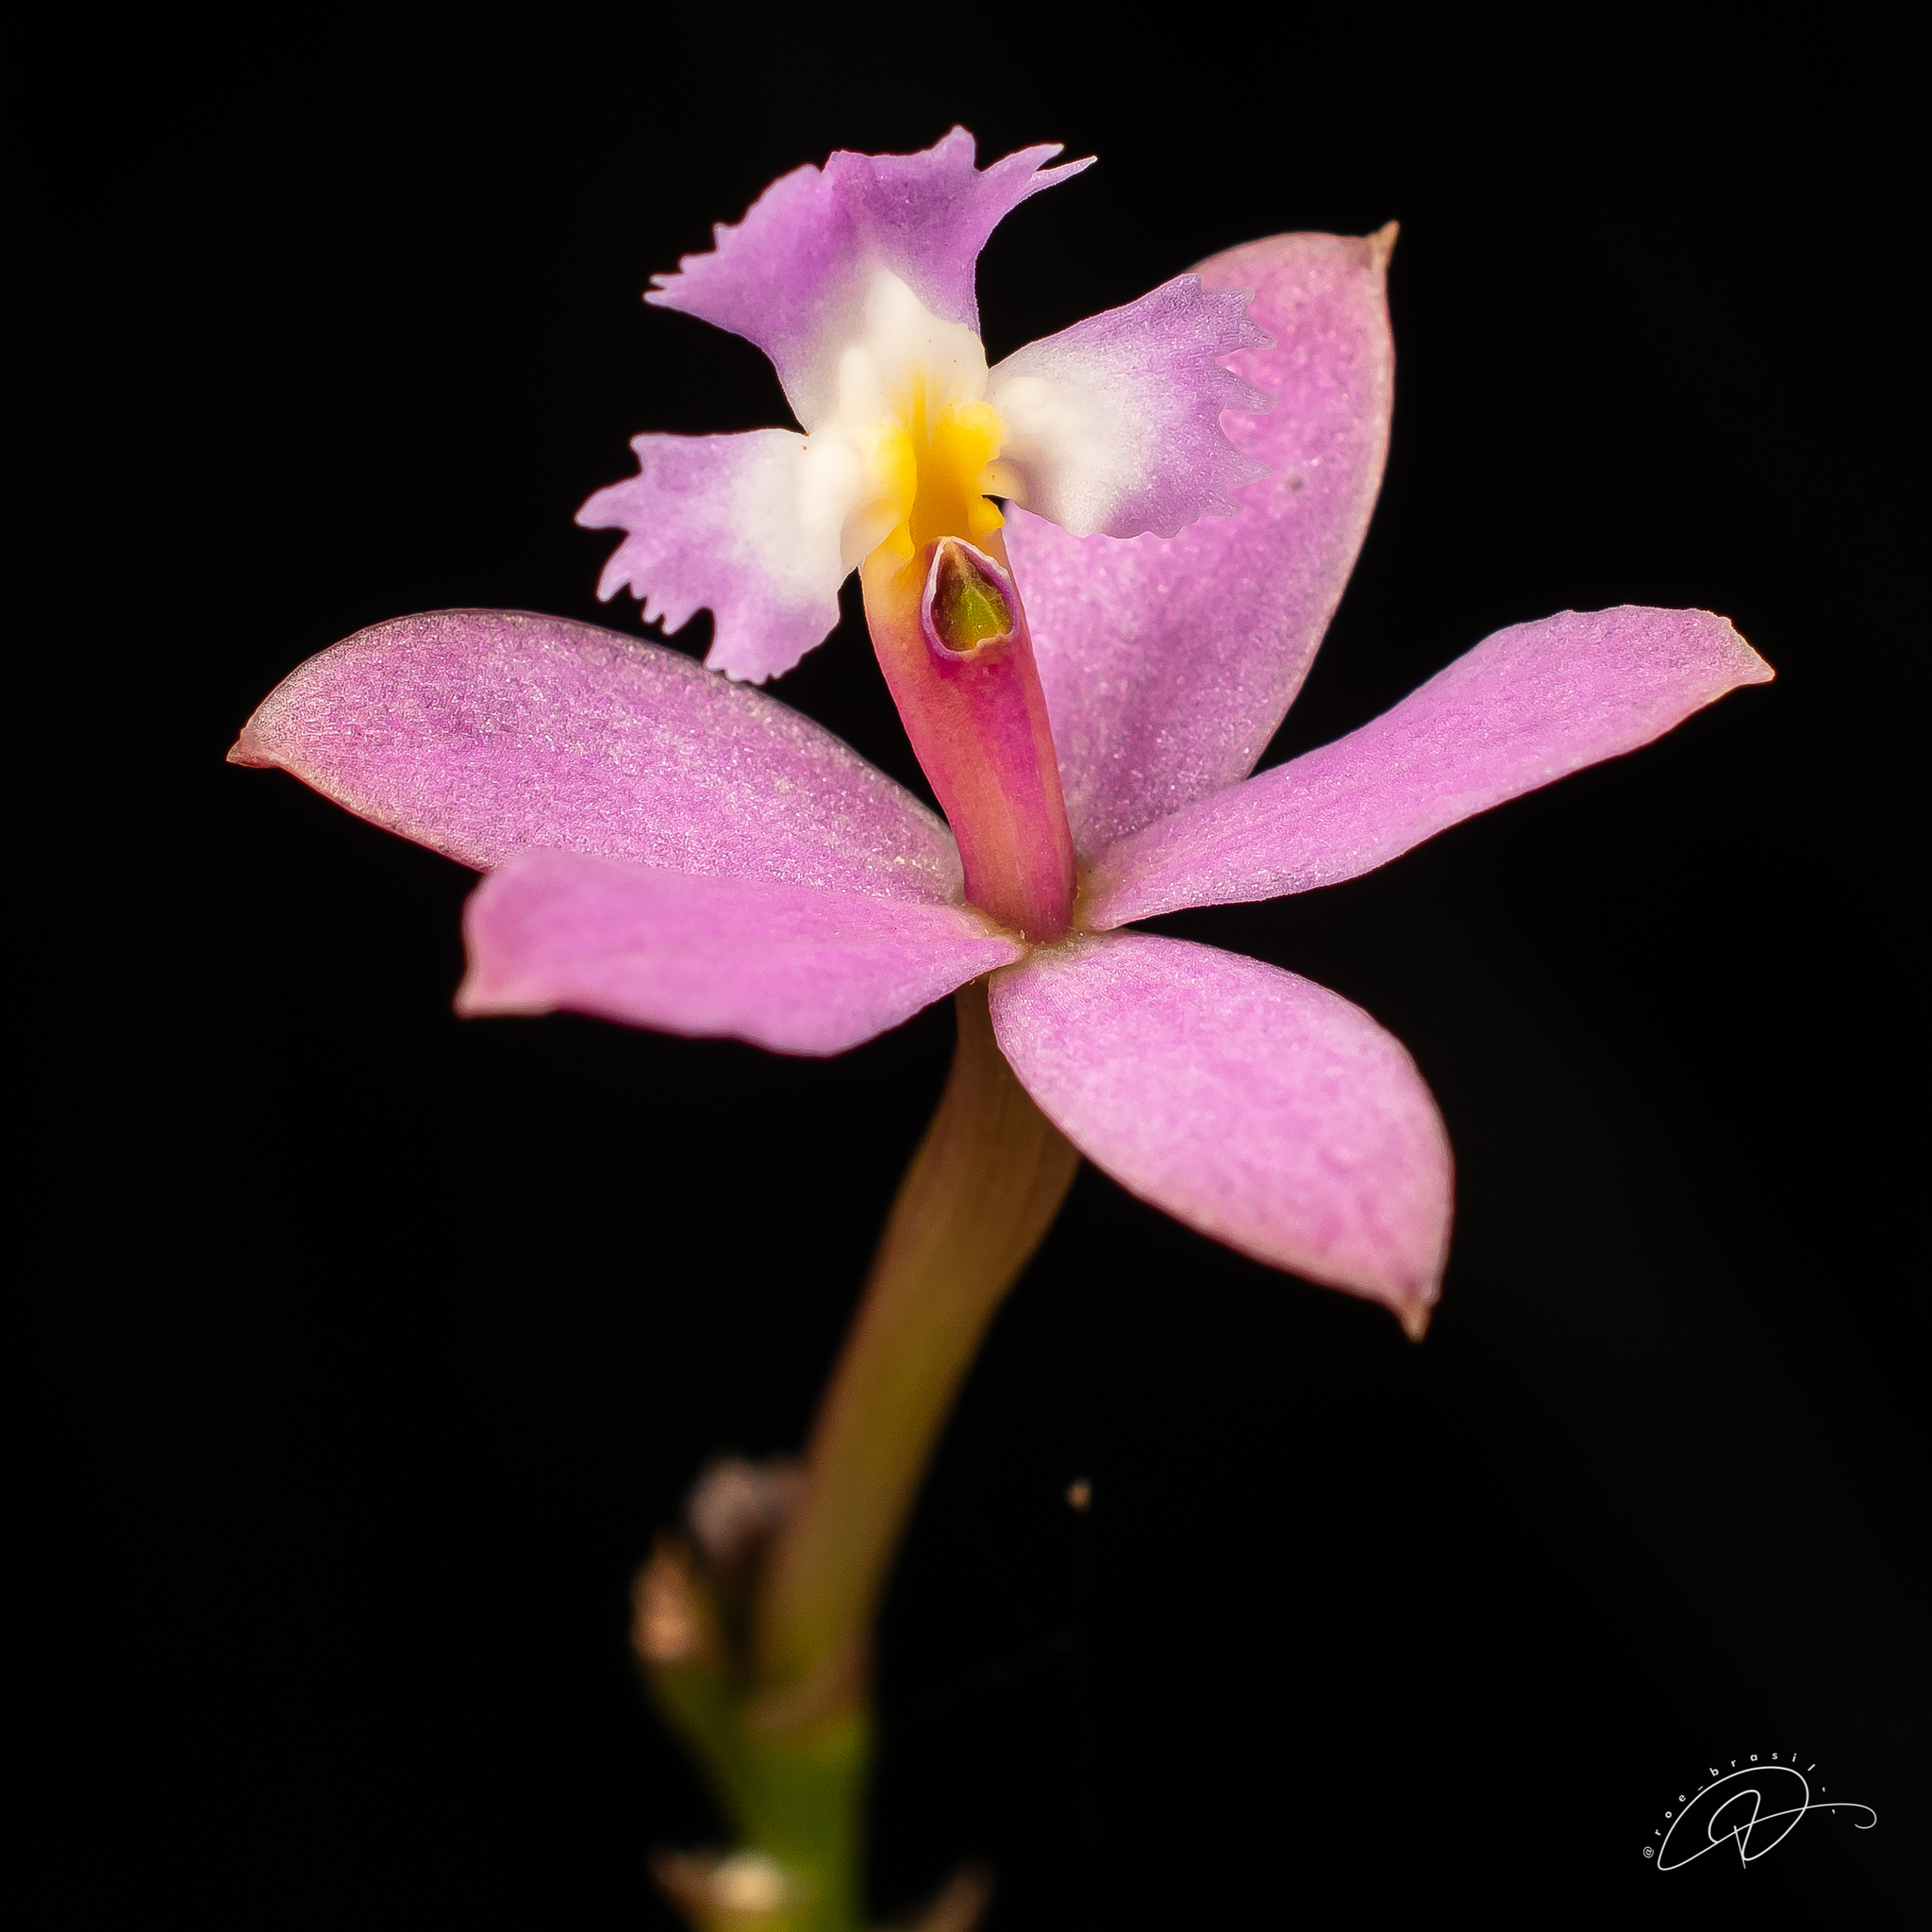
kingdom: Plantae
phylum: Tracheophyta
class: Liliopsida
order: Asparagales
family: Orchidaceae
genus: Epidendrum
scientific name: Epidendrum secundum
